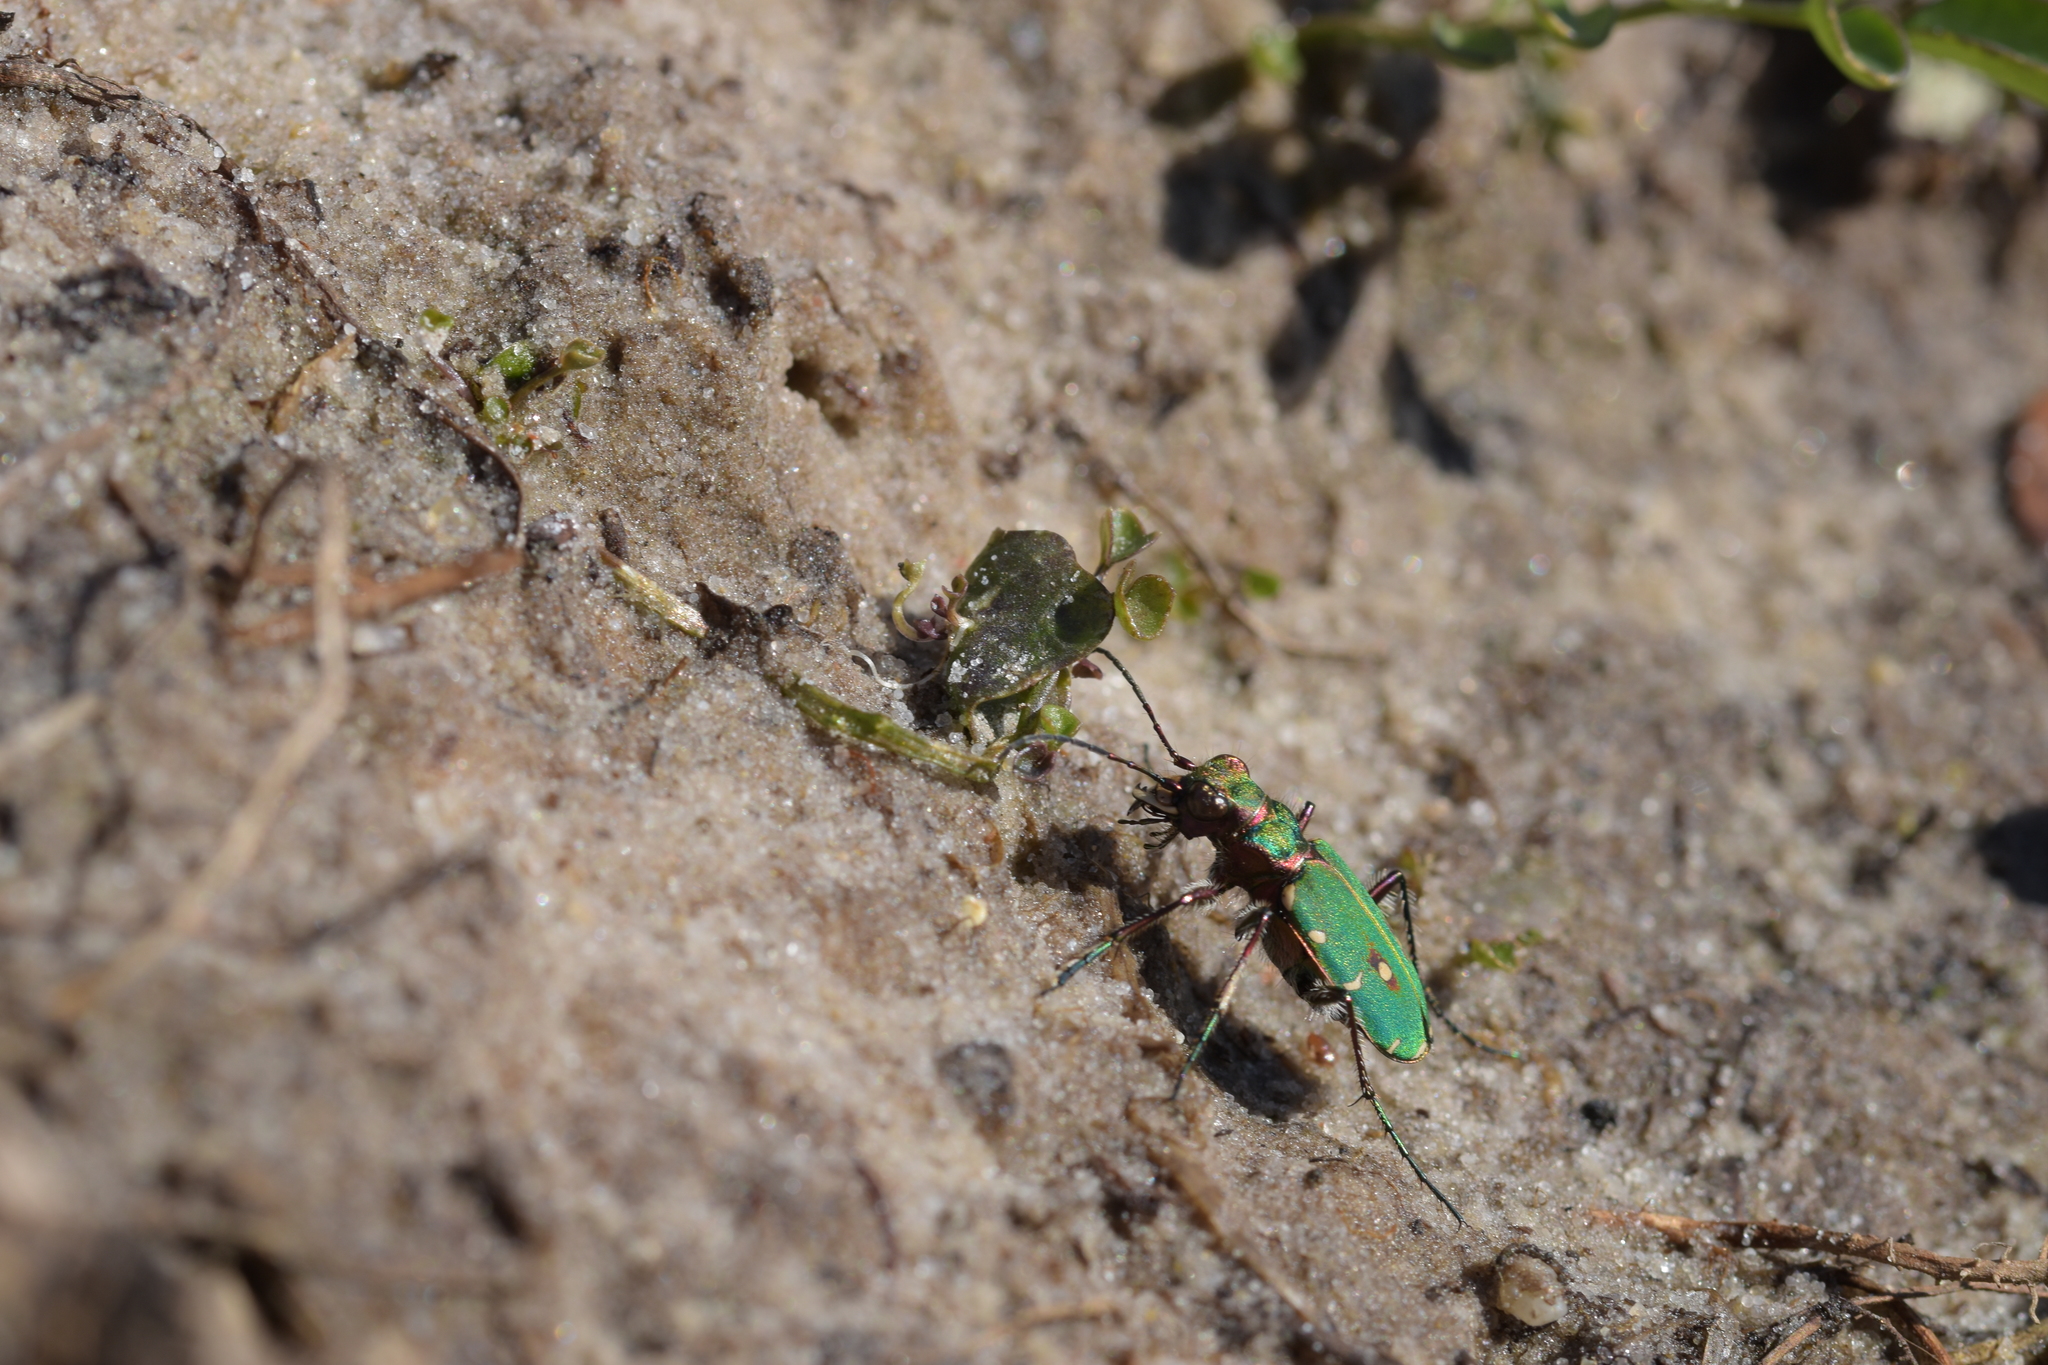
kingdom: Animalia
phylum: Arthropoda
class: Insecta
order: Coleoptera
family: Carabidae
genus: Cicindela
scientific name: Cicindela campestris
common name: Common tiger beetle
